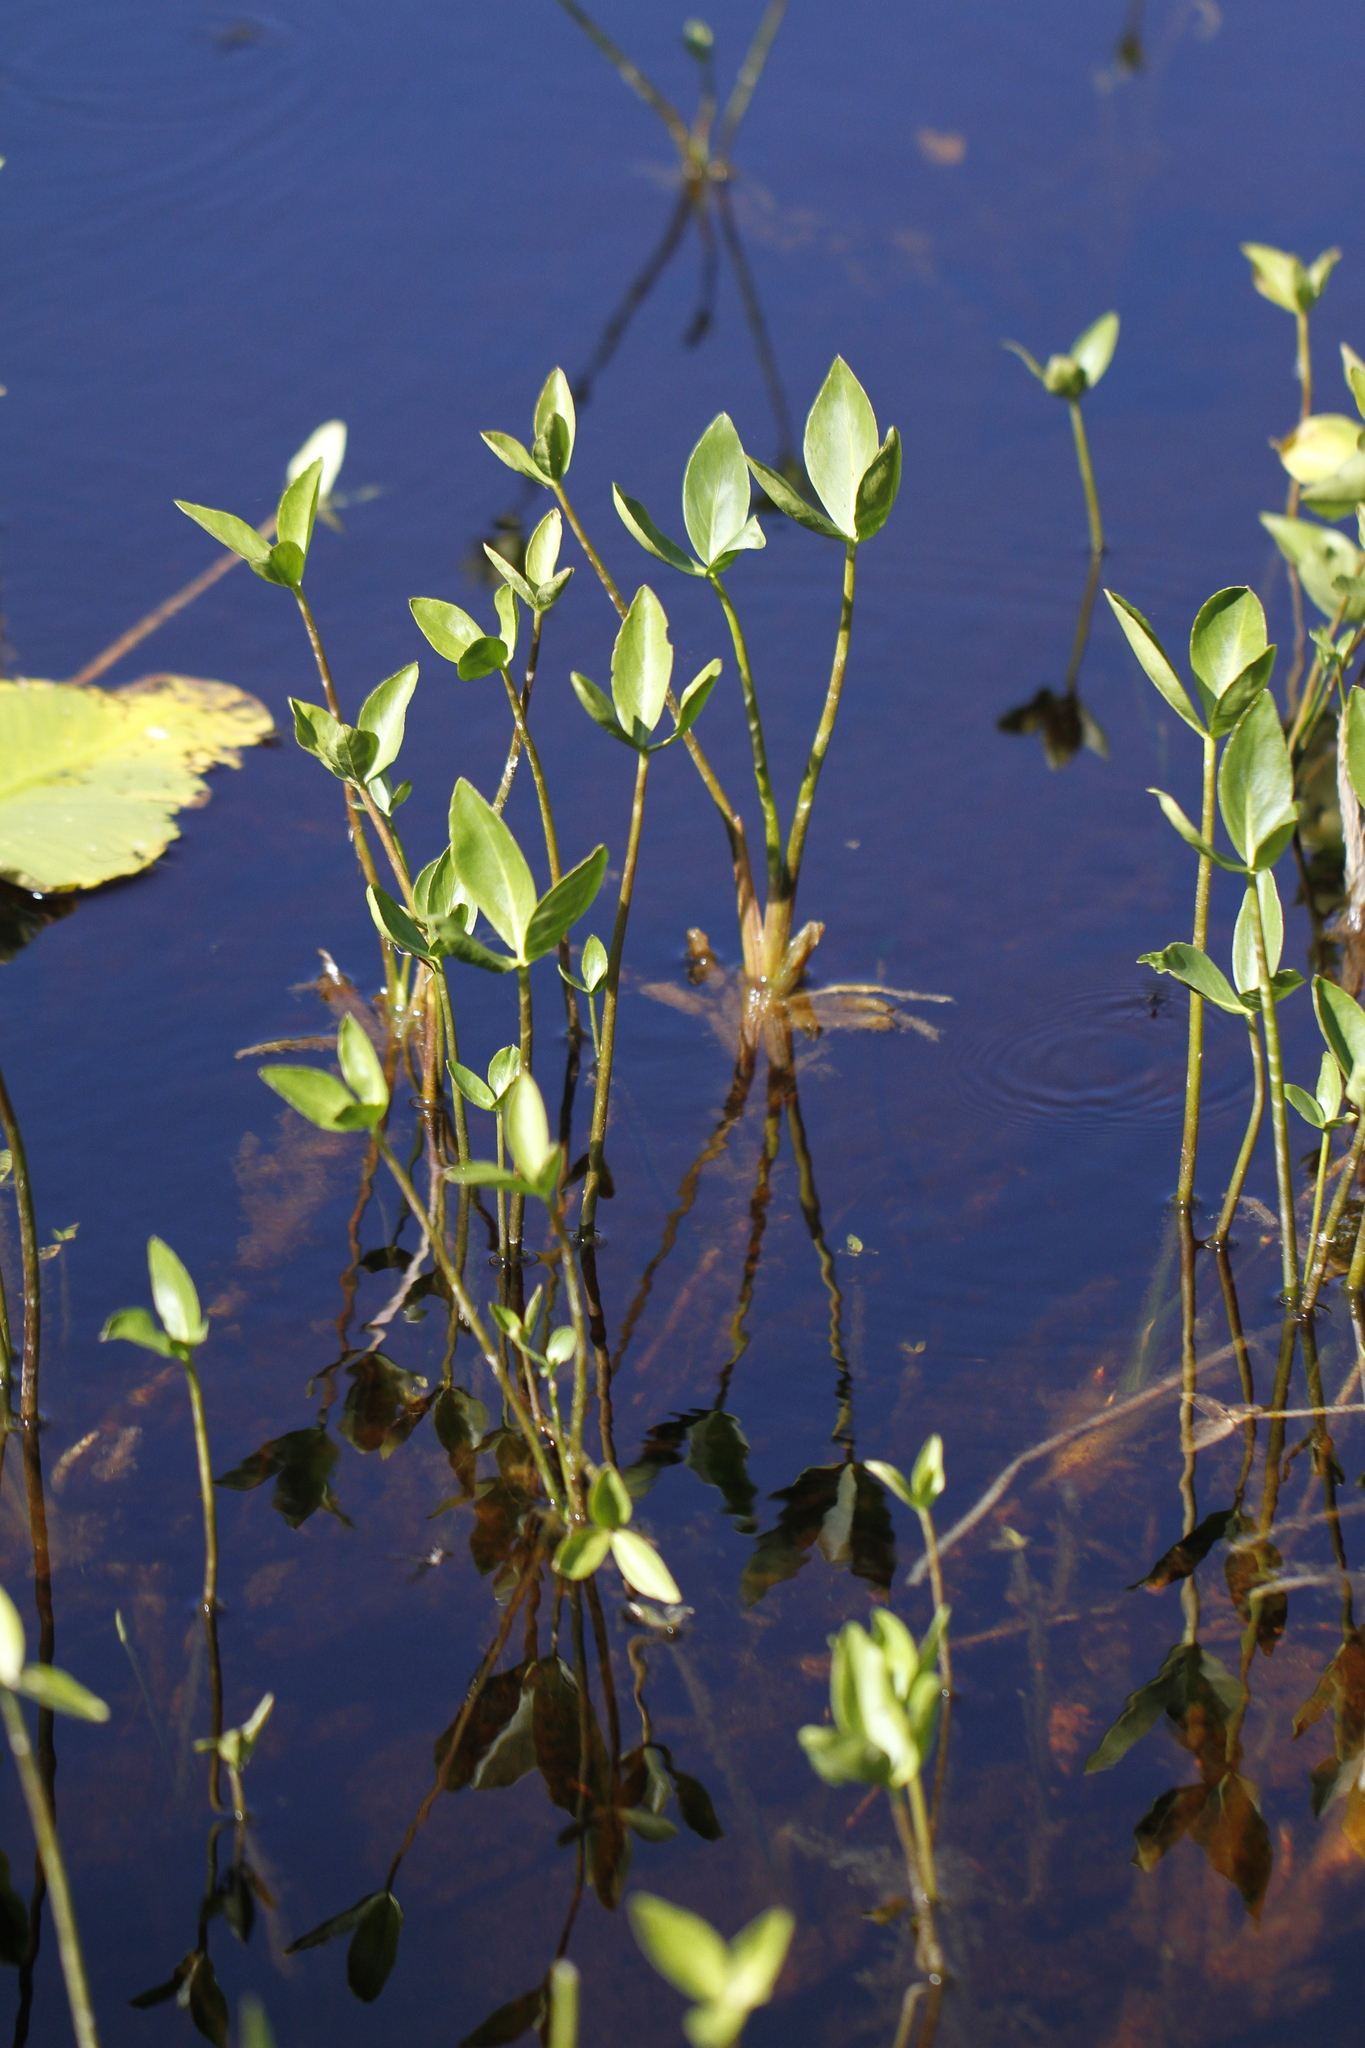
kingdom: Plantae
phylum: Tracheophyta
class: Magnoliopsida
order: Asterales
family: Menyanthaceae
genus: Menyanthes
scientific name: Menyanthes trifoliata
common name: Bogbean
